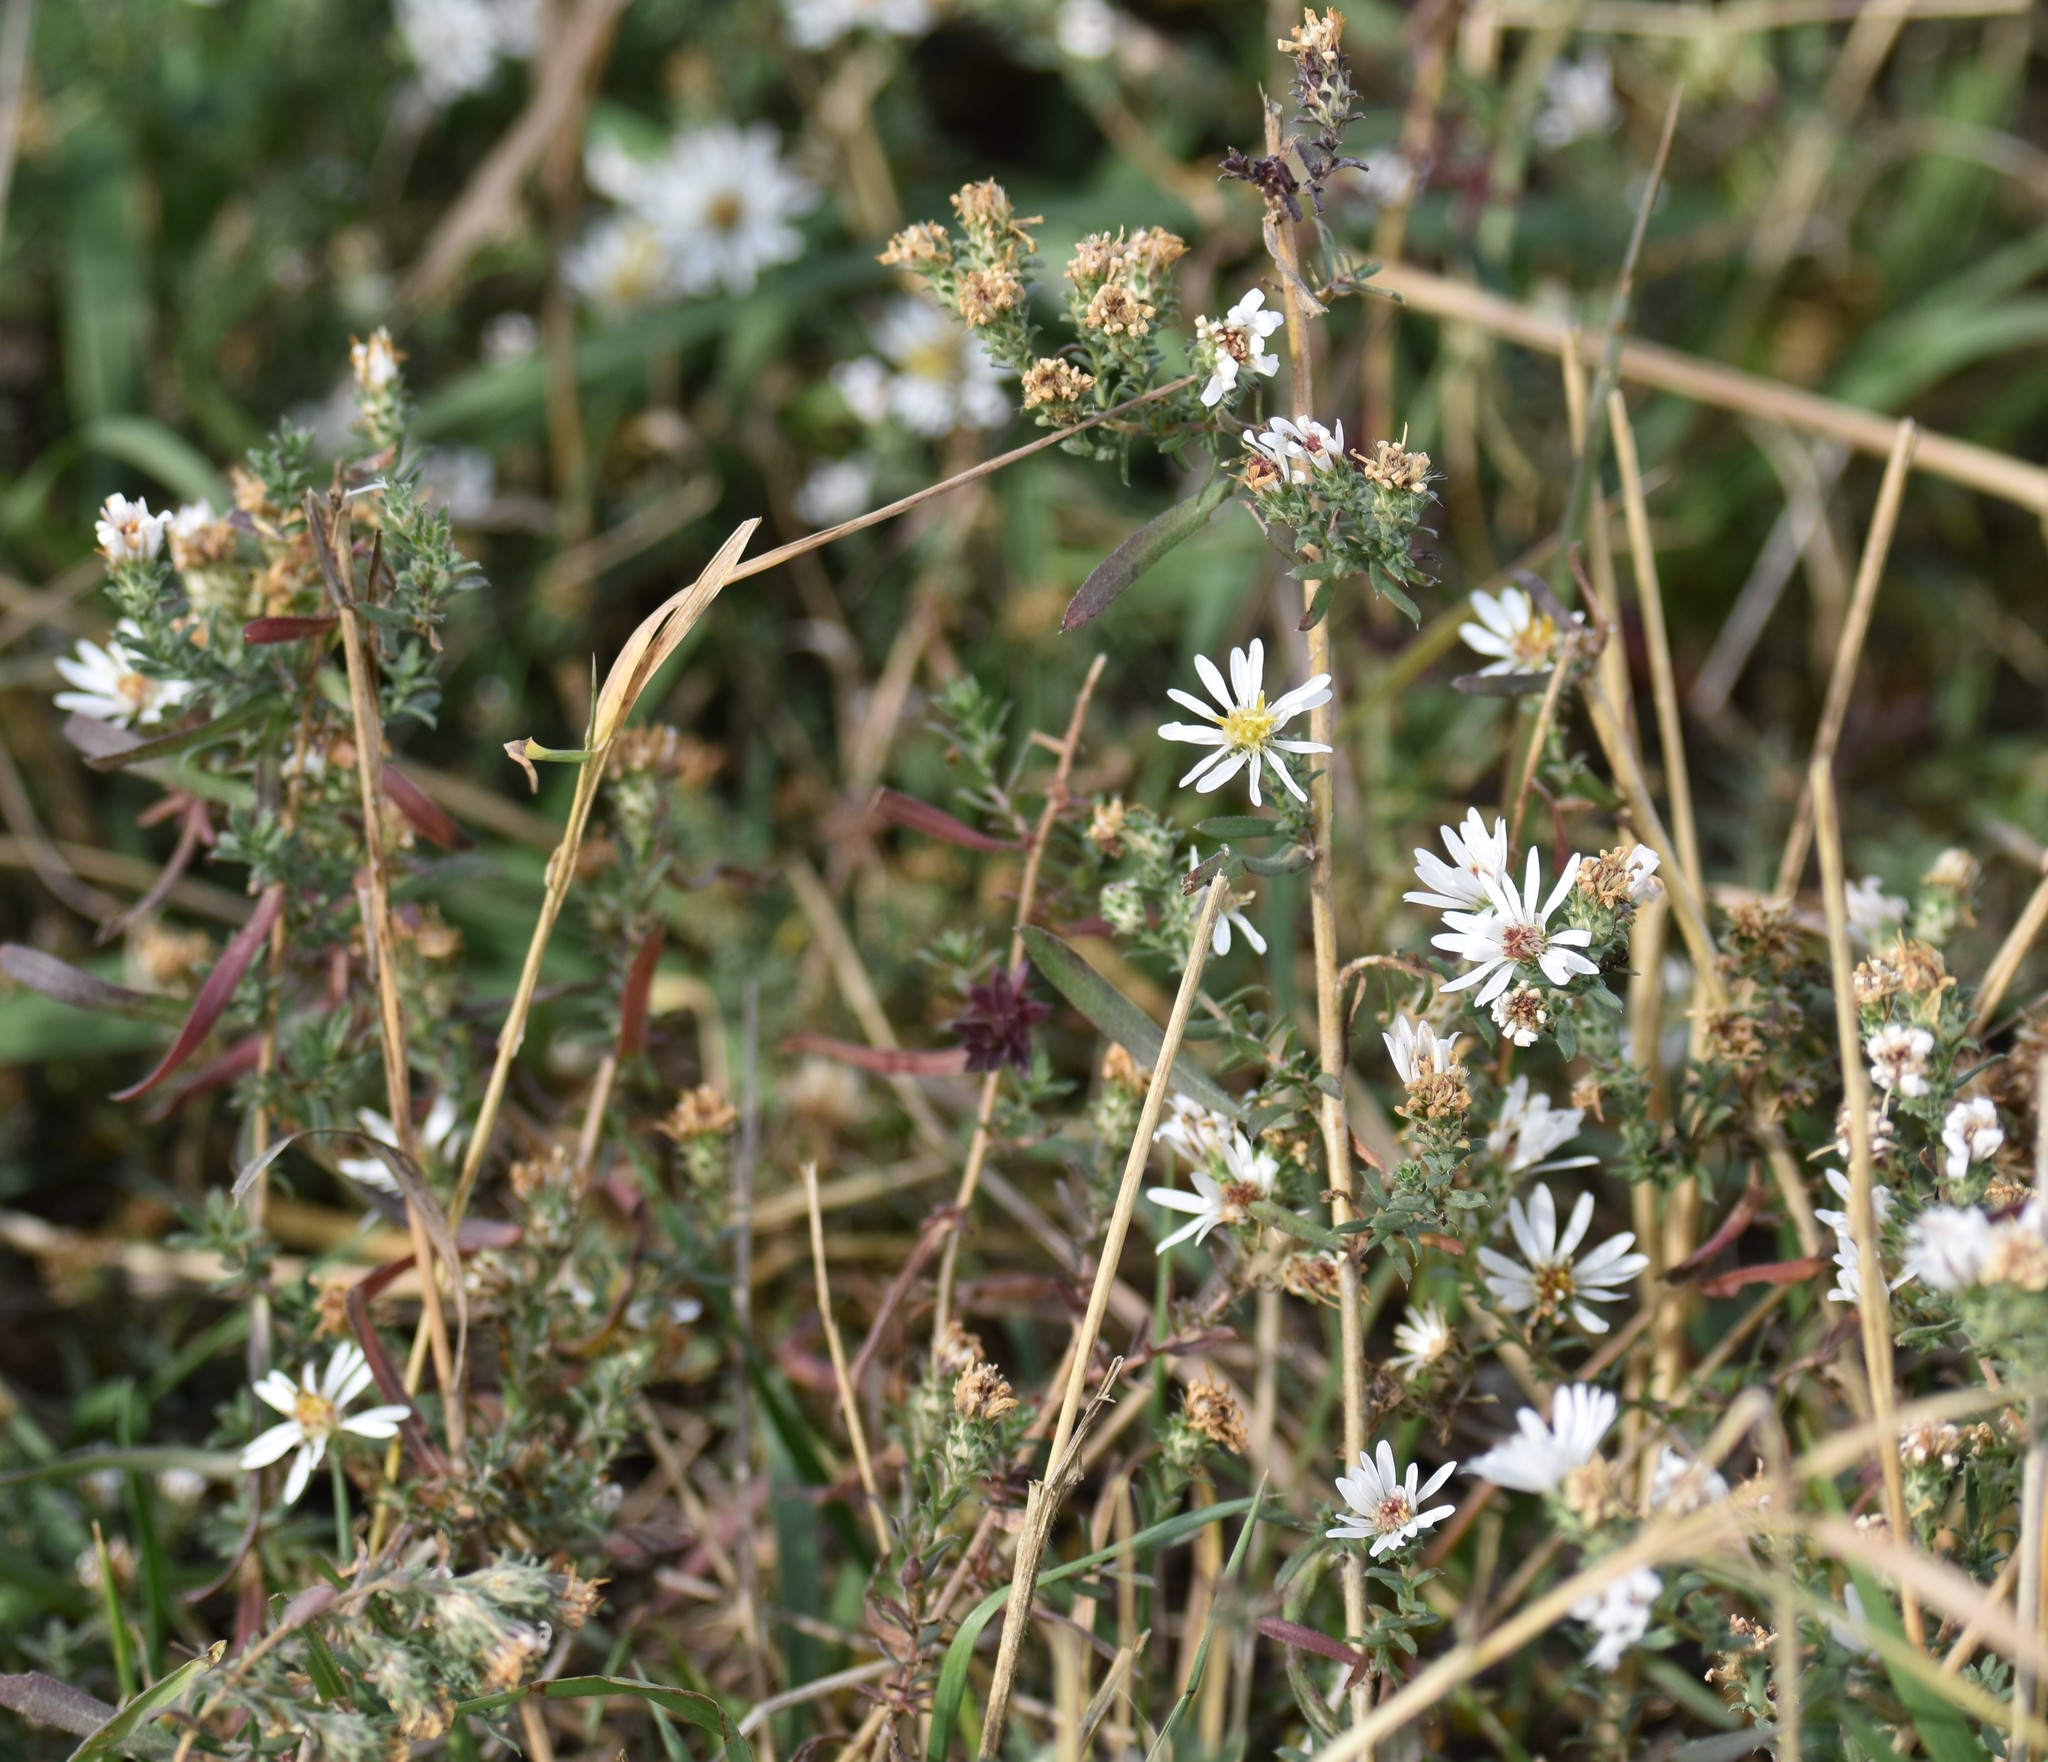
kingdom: Plantae
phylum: Tracheophyta
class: Magnoliopsida
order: Asterales
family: Asteraceae
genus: Symphyotrichum
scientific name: Symphyotrichum ericoides
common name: Heath aster
